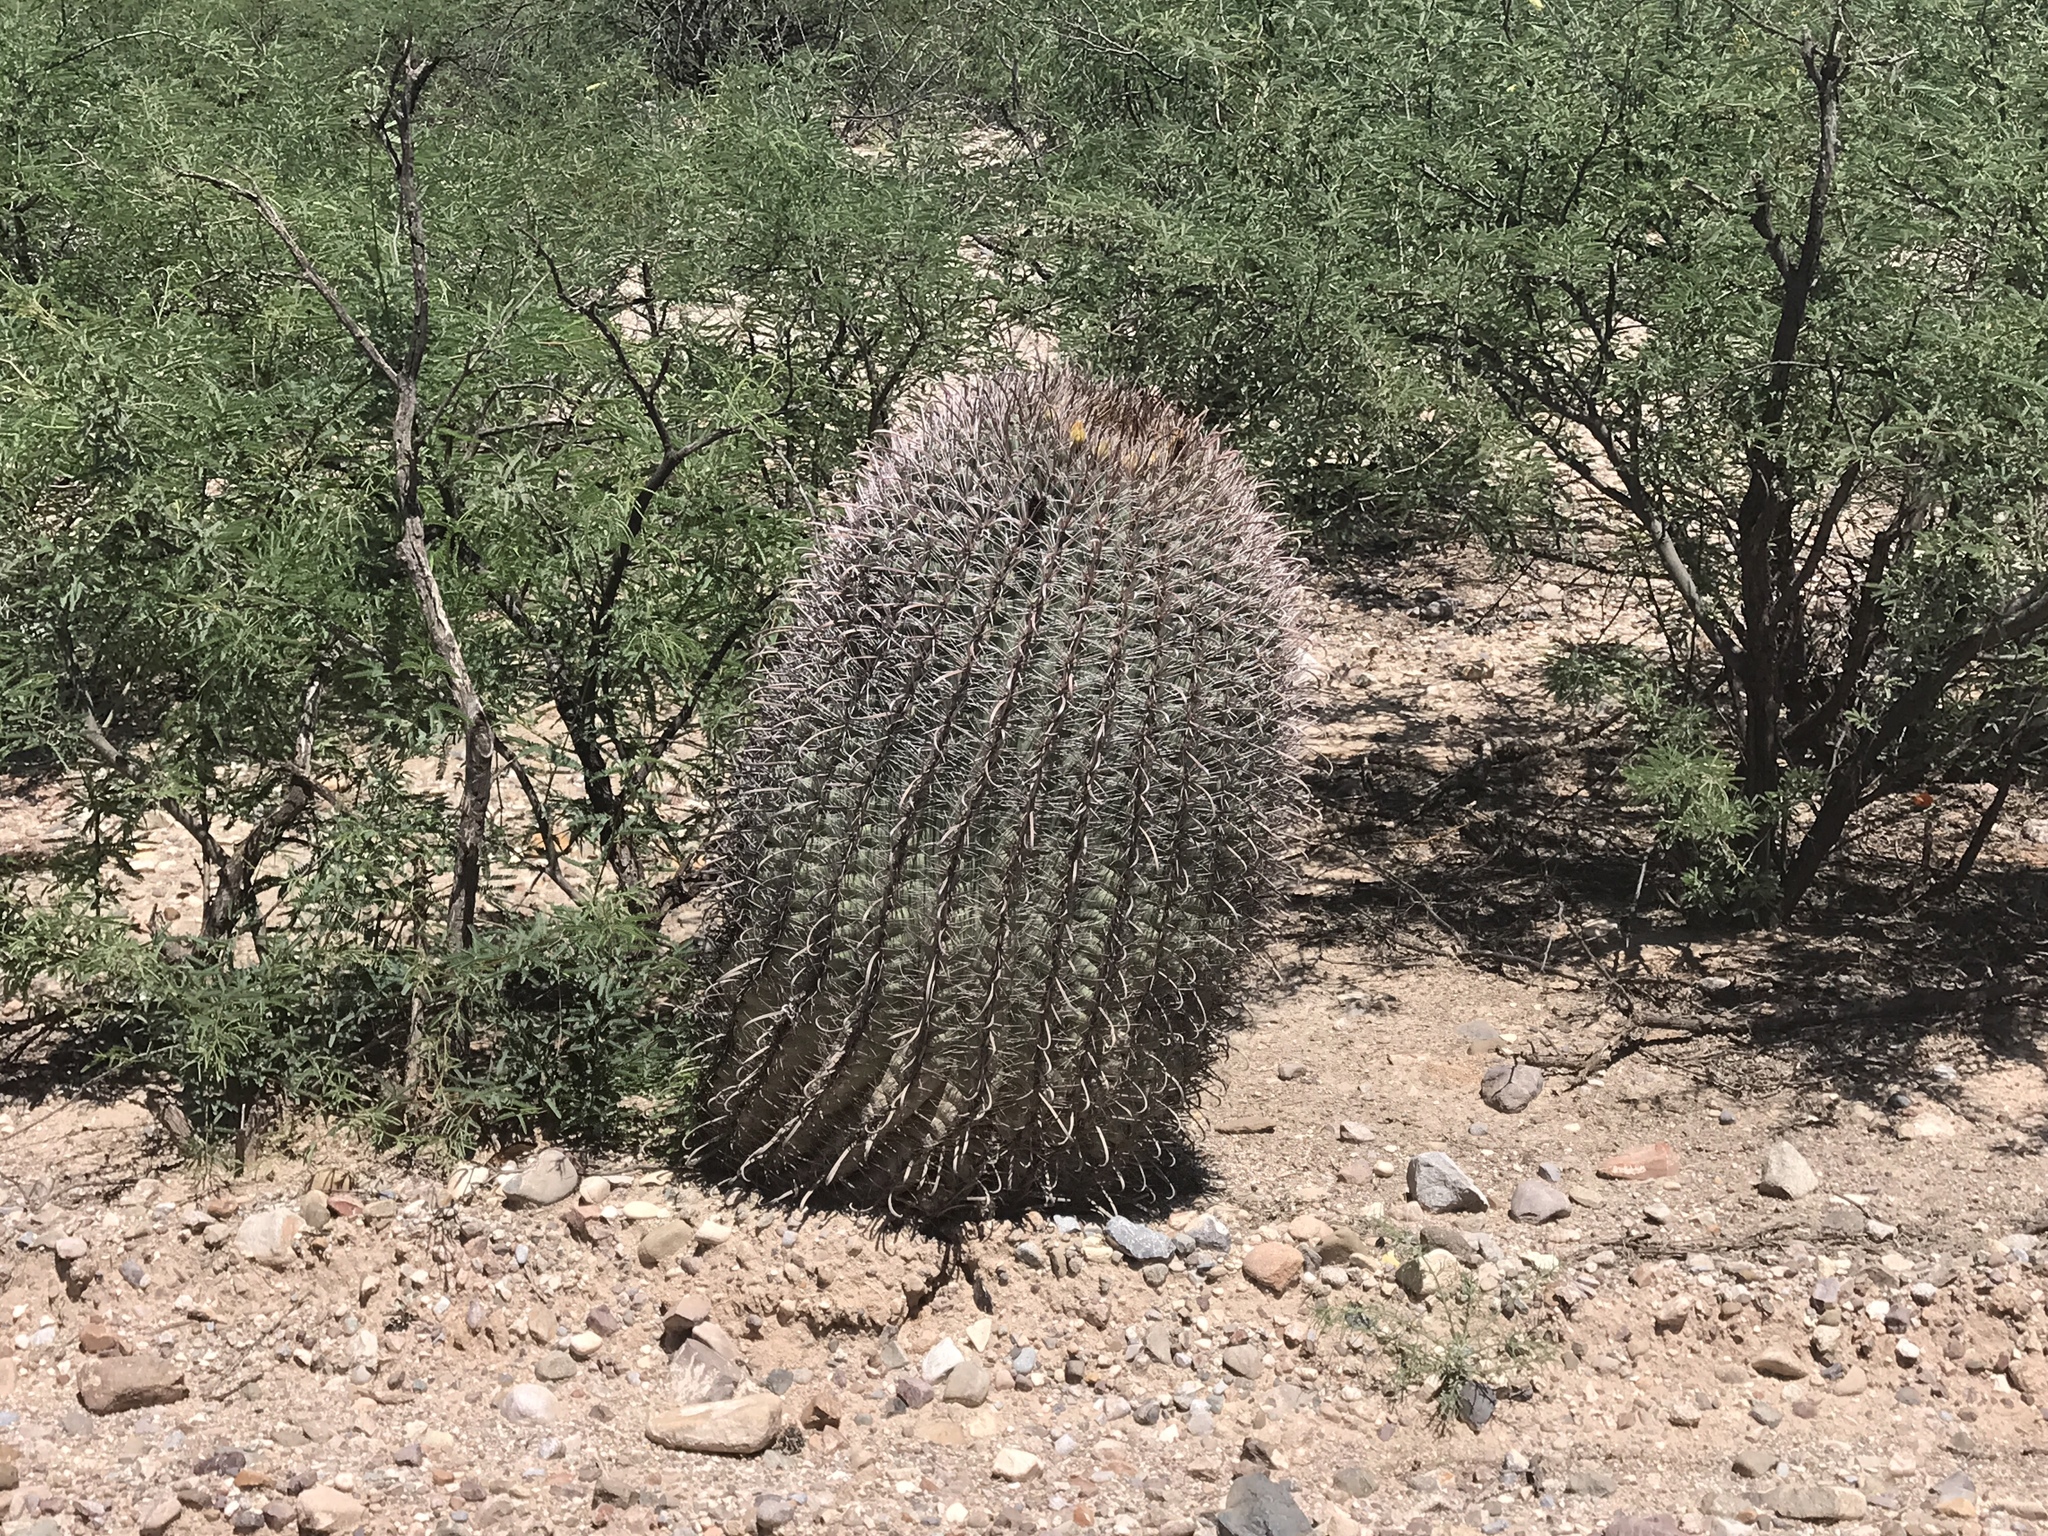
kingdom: Plantae
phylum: Tracheophyta
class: Magnoliopsida
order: Caryophyllales
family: Cactaceae
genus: Ferocactus
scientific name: Ferocactus wislizeni
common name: Candy barrel cactus
